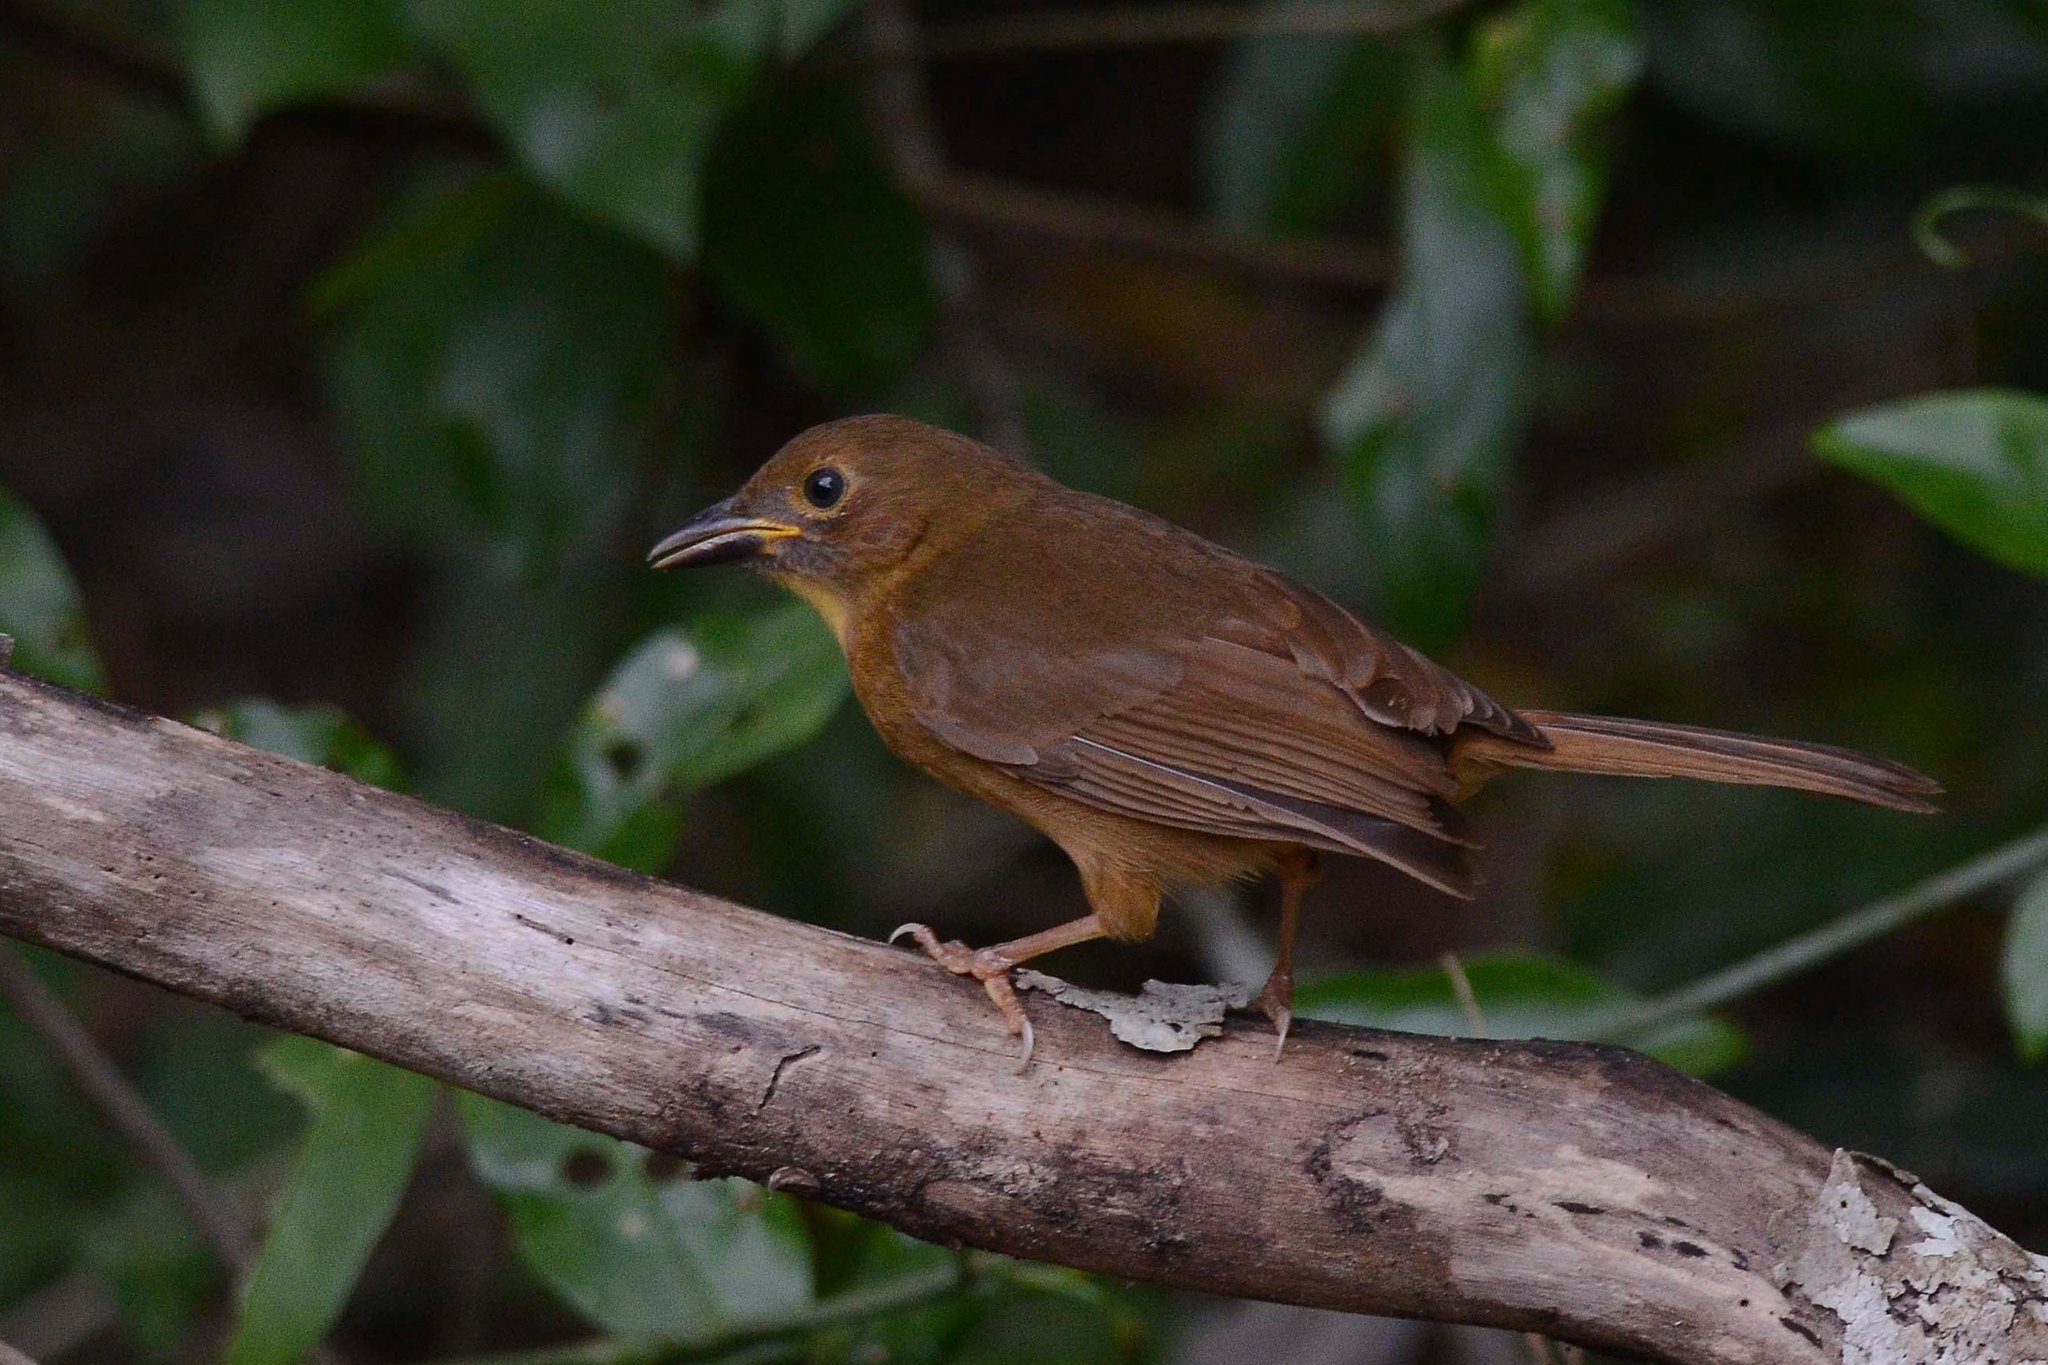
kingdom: Animalia
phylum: Chordata
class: Aves
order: Passeriformes
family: Cardinalidae
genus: Habia
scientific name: Habia fuscicauda
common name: Red-throated ant-tanager
